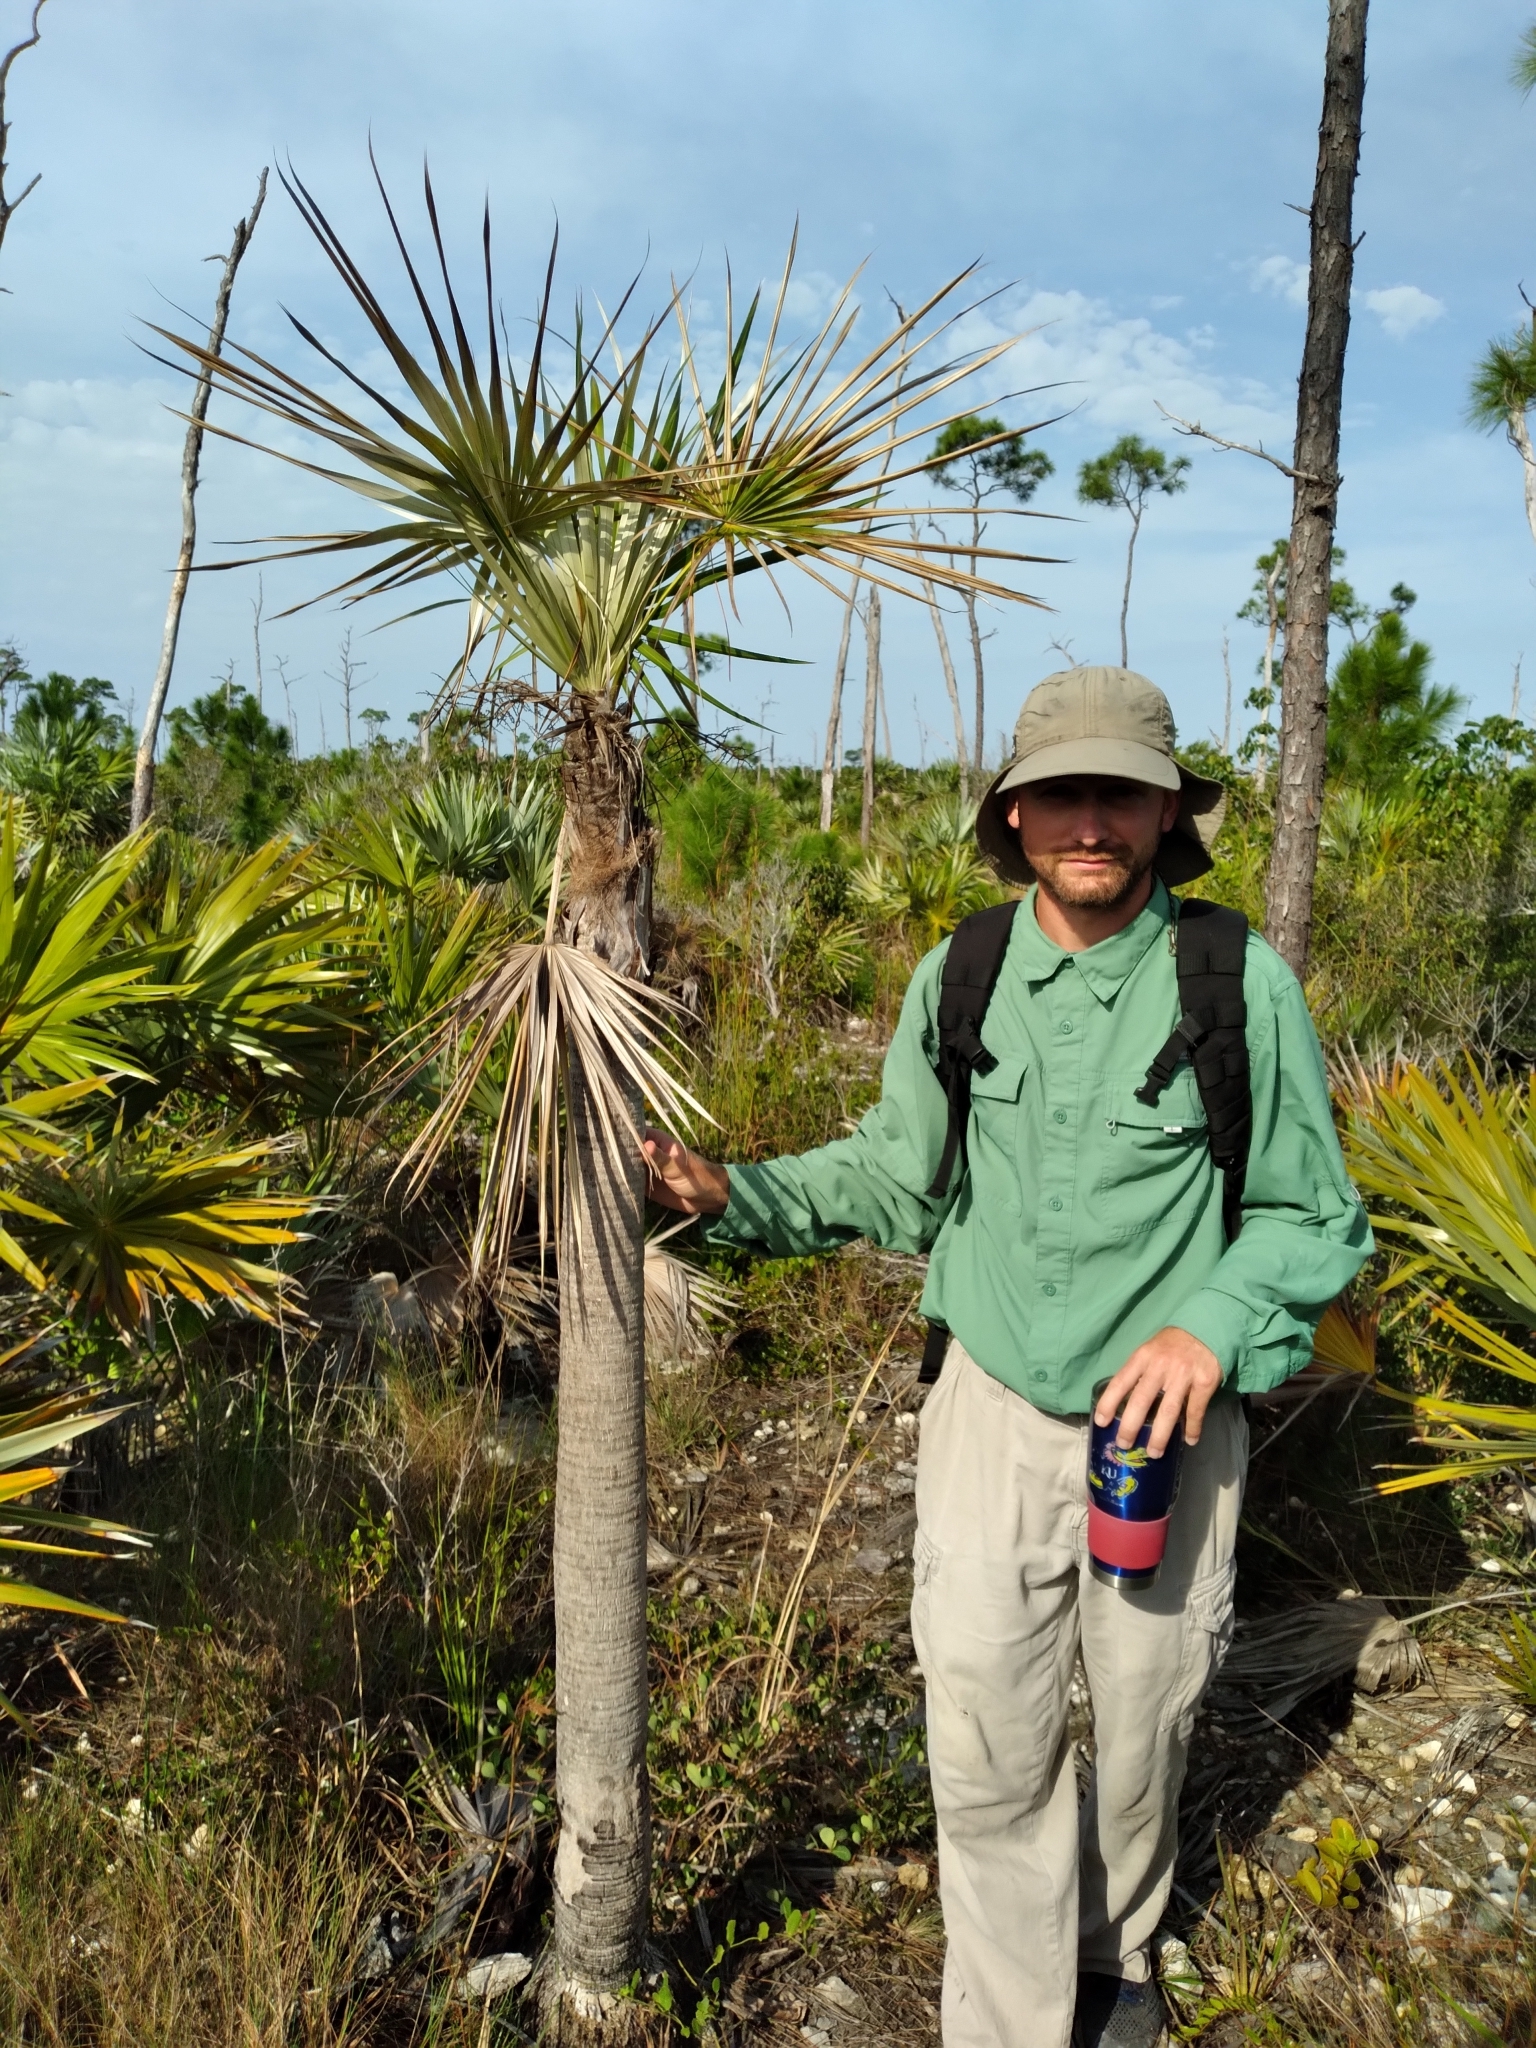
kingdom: Plantae
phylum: Tracheophyta
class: Liliopsida
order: Arecales
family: Arecaceae
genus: Coccothrinax
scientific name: Coccothrinax argentata
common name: Florida silver palm
